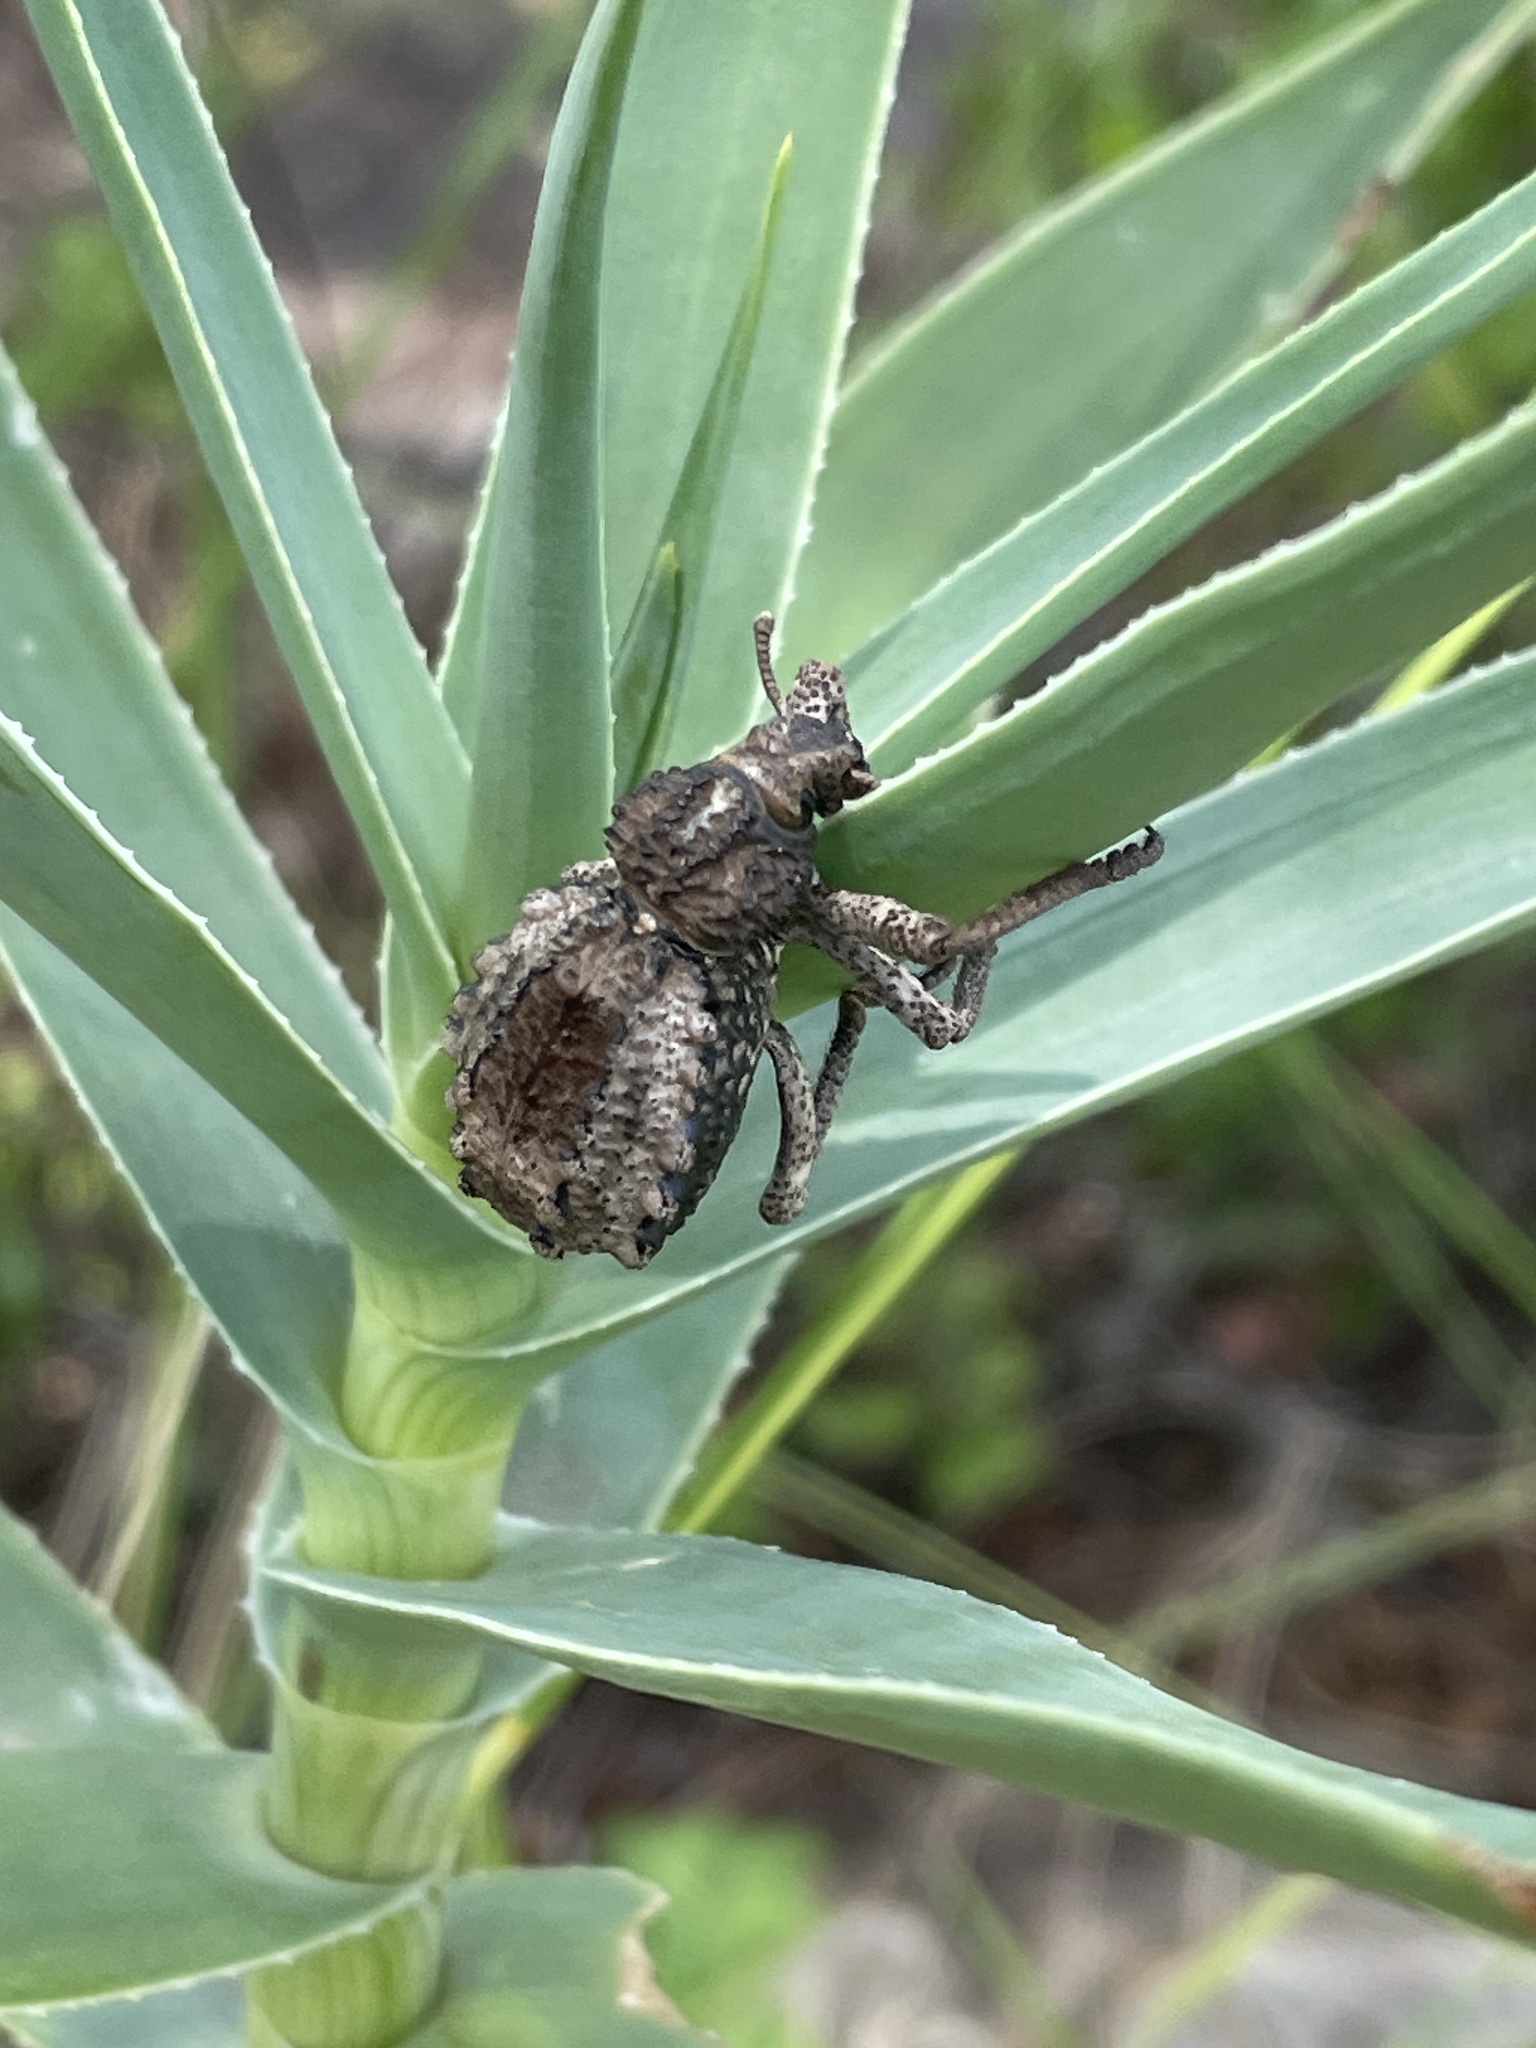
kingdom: Animalia
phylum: Arthropoda
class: Insecta
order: Coleoptera
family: Brachyceridae
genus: Brachycerus
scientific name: Brachycerus tauriculus
